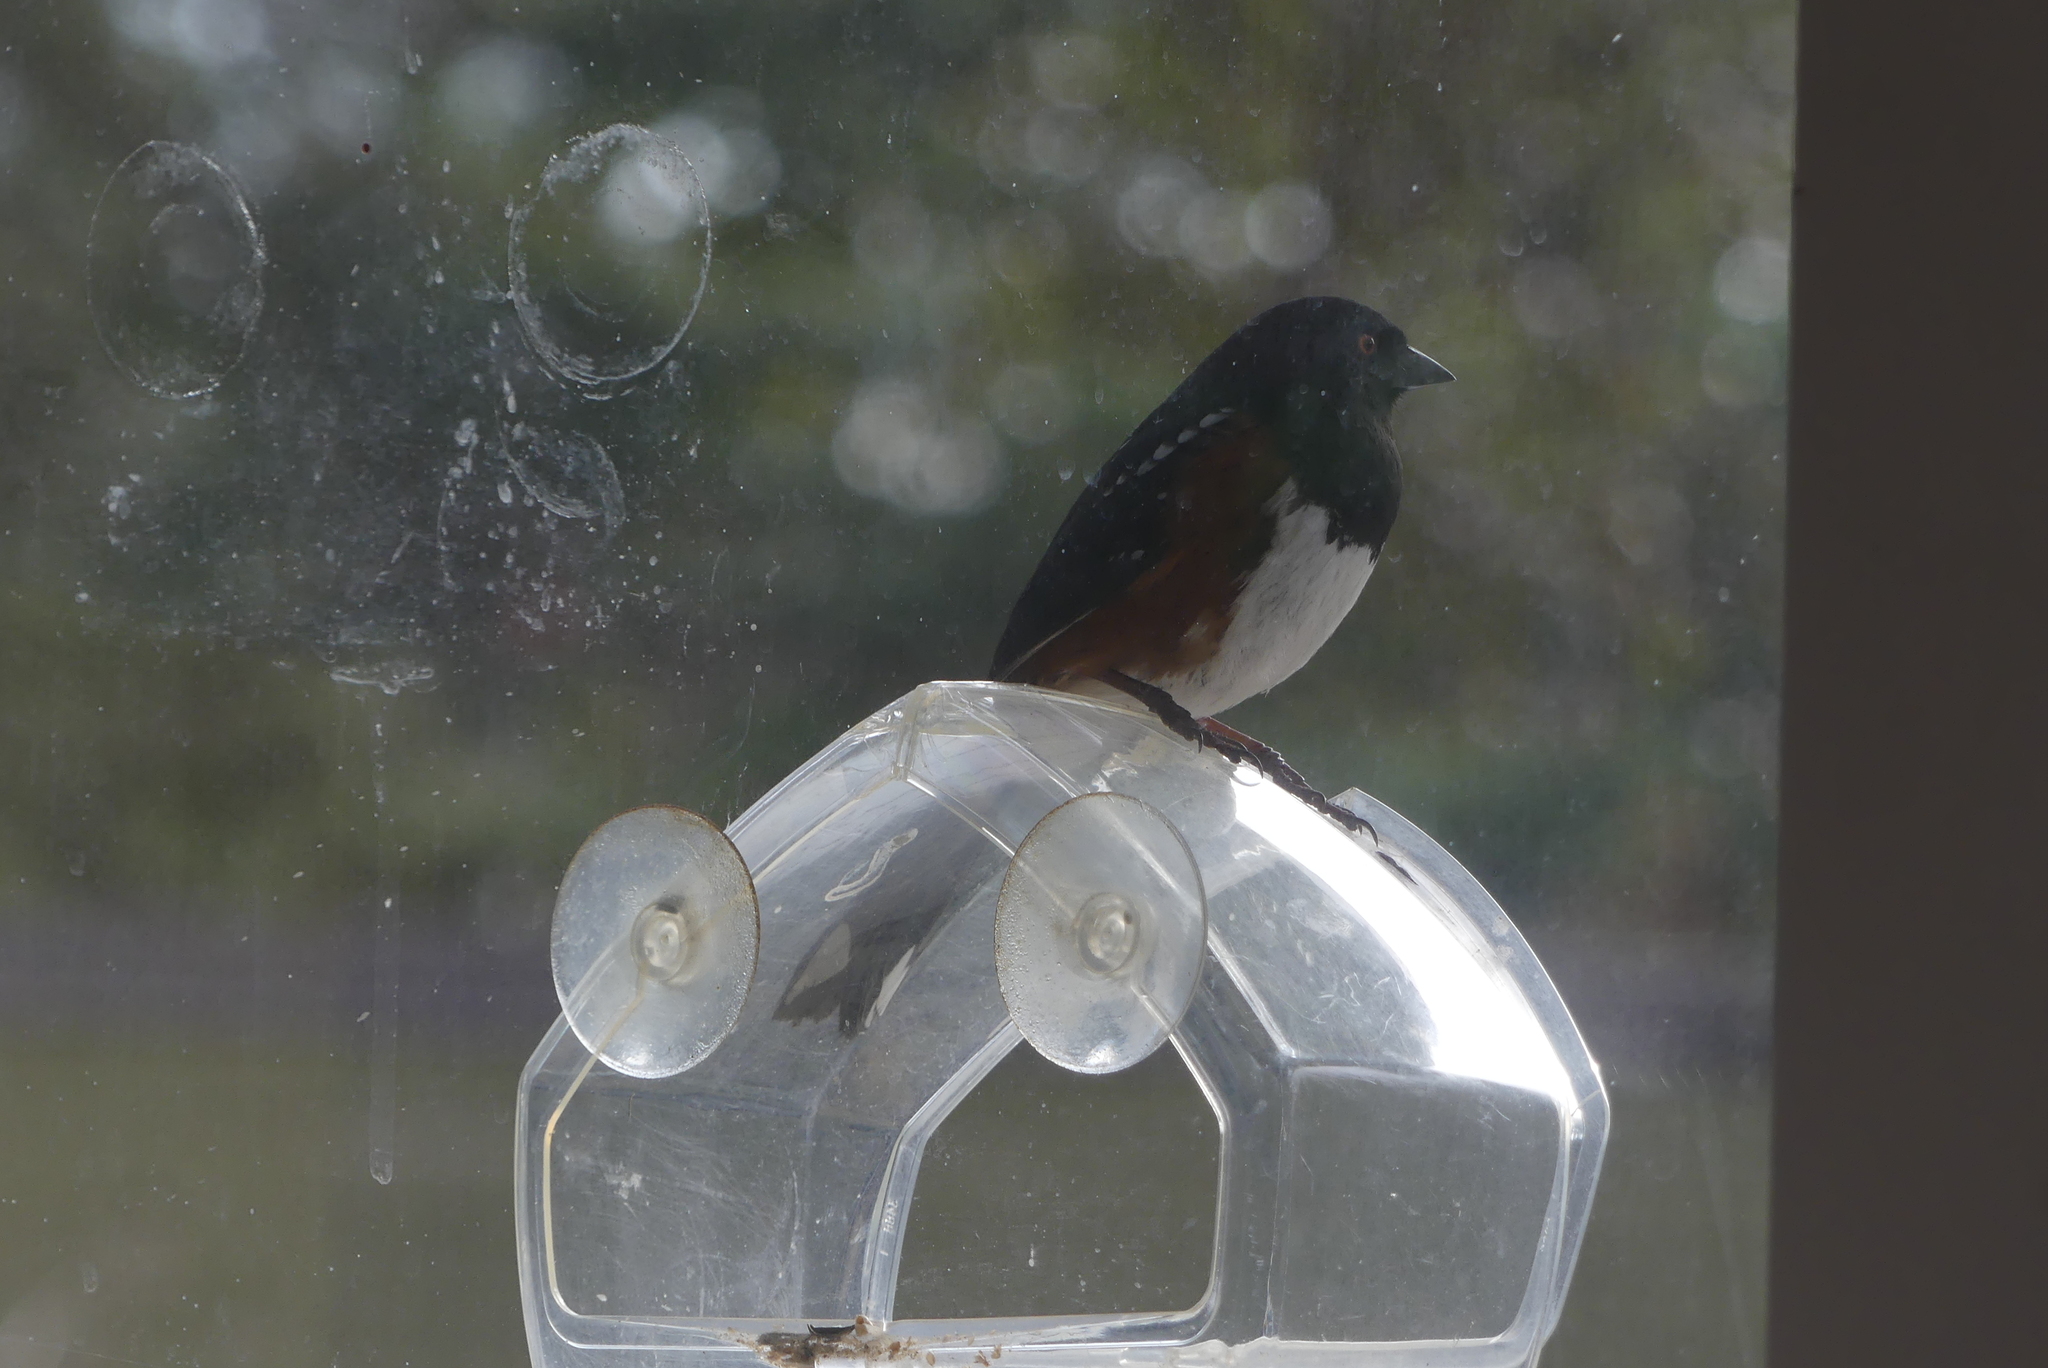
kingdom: Animalia
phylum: Chordata
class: Aves
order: Passeriformes
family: Passerellidae
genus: Pipilo
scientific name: Pipilo maculatus
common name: Spotted towhee
